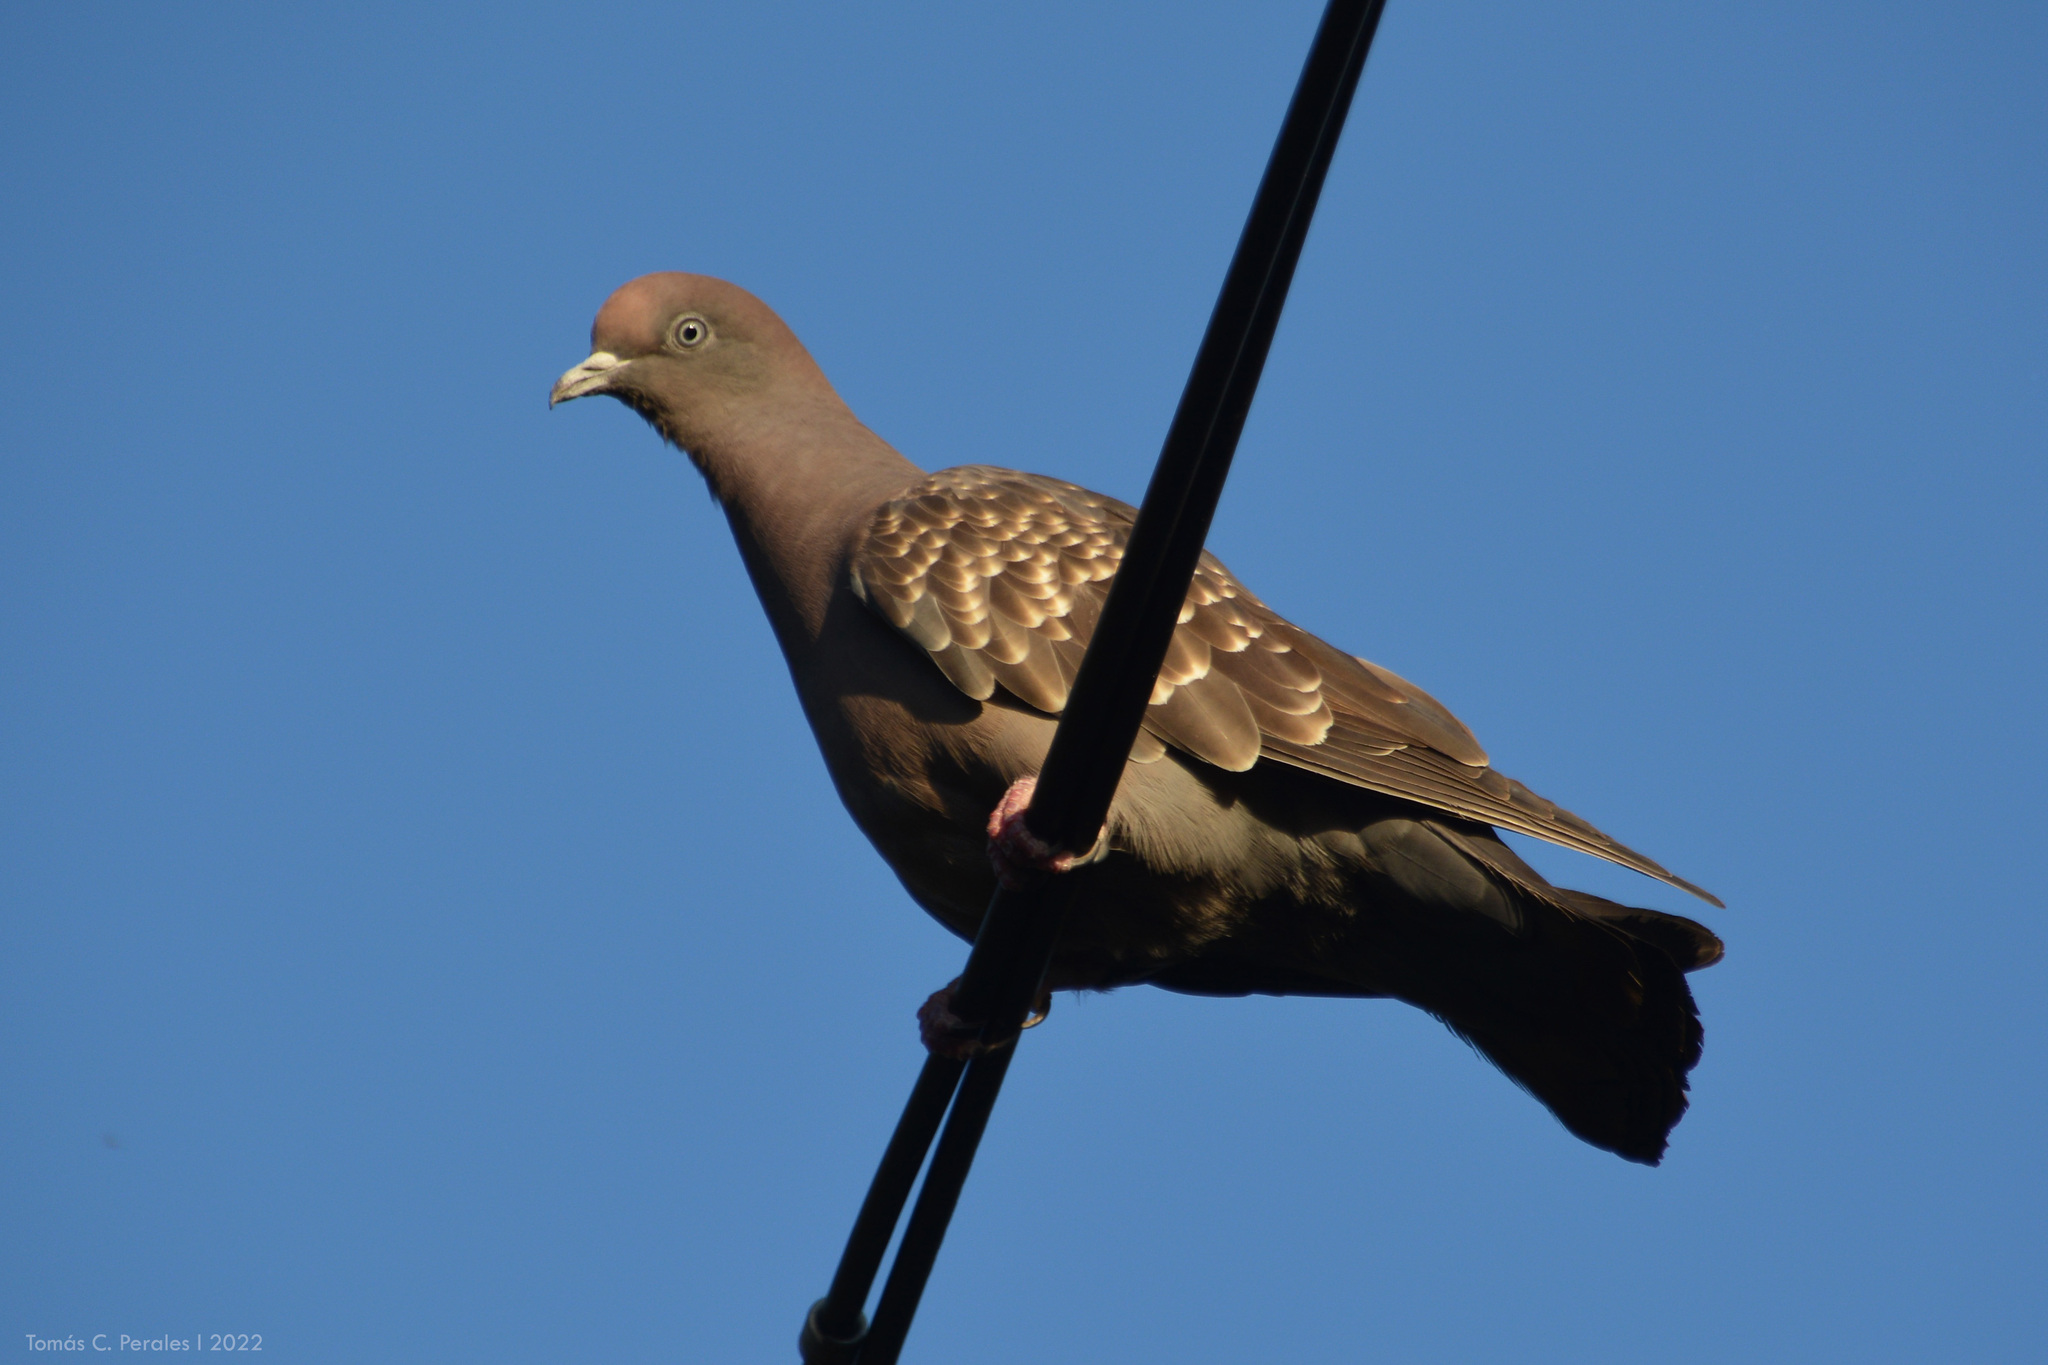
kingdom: Animalia
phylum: Chordata
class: Aves
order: Columbiformes
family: Columbidae
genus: Patagioenas
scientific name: Patagioenas maculosa
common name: Spot-winged pigeon
